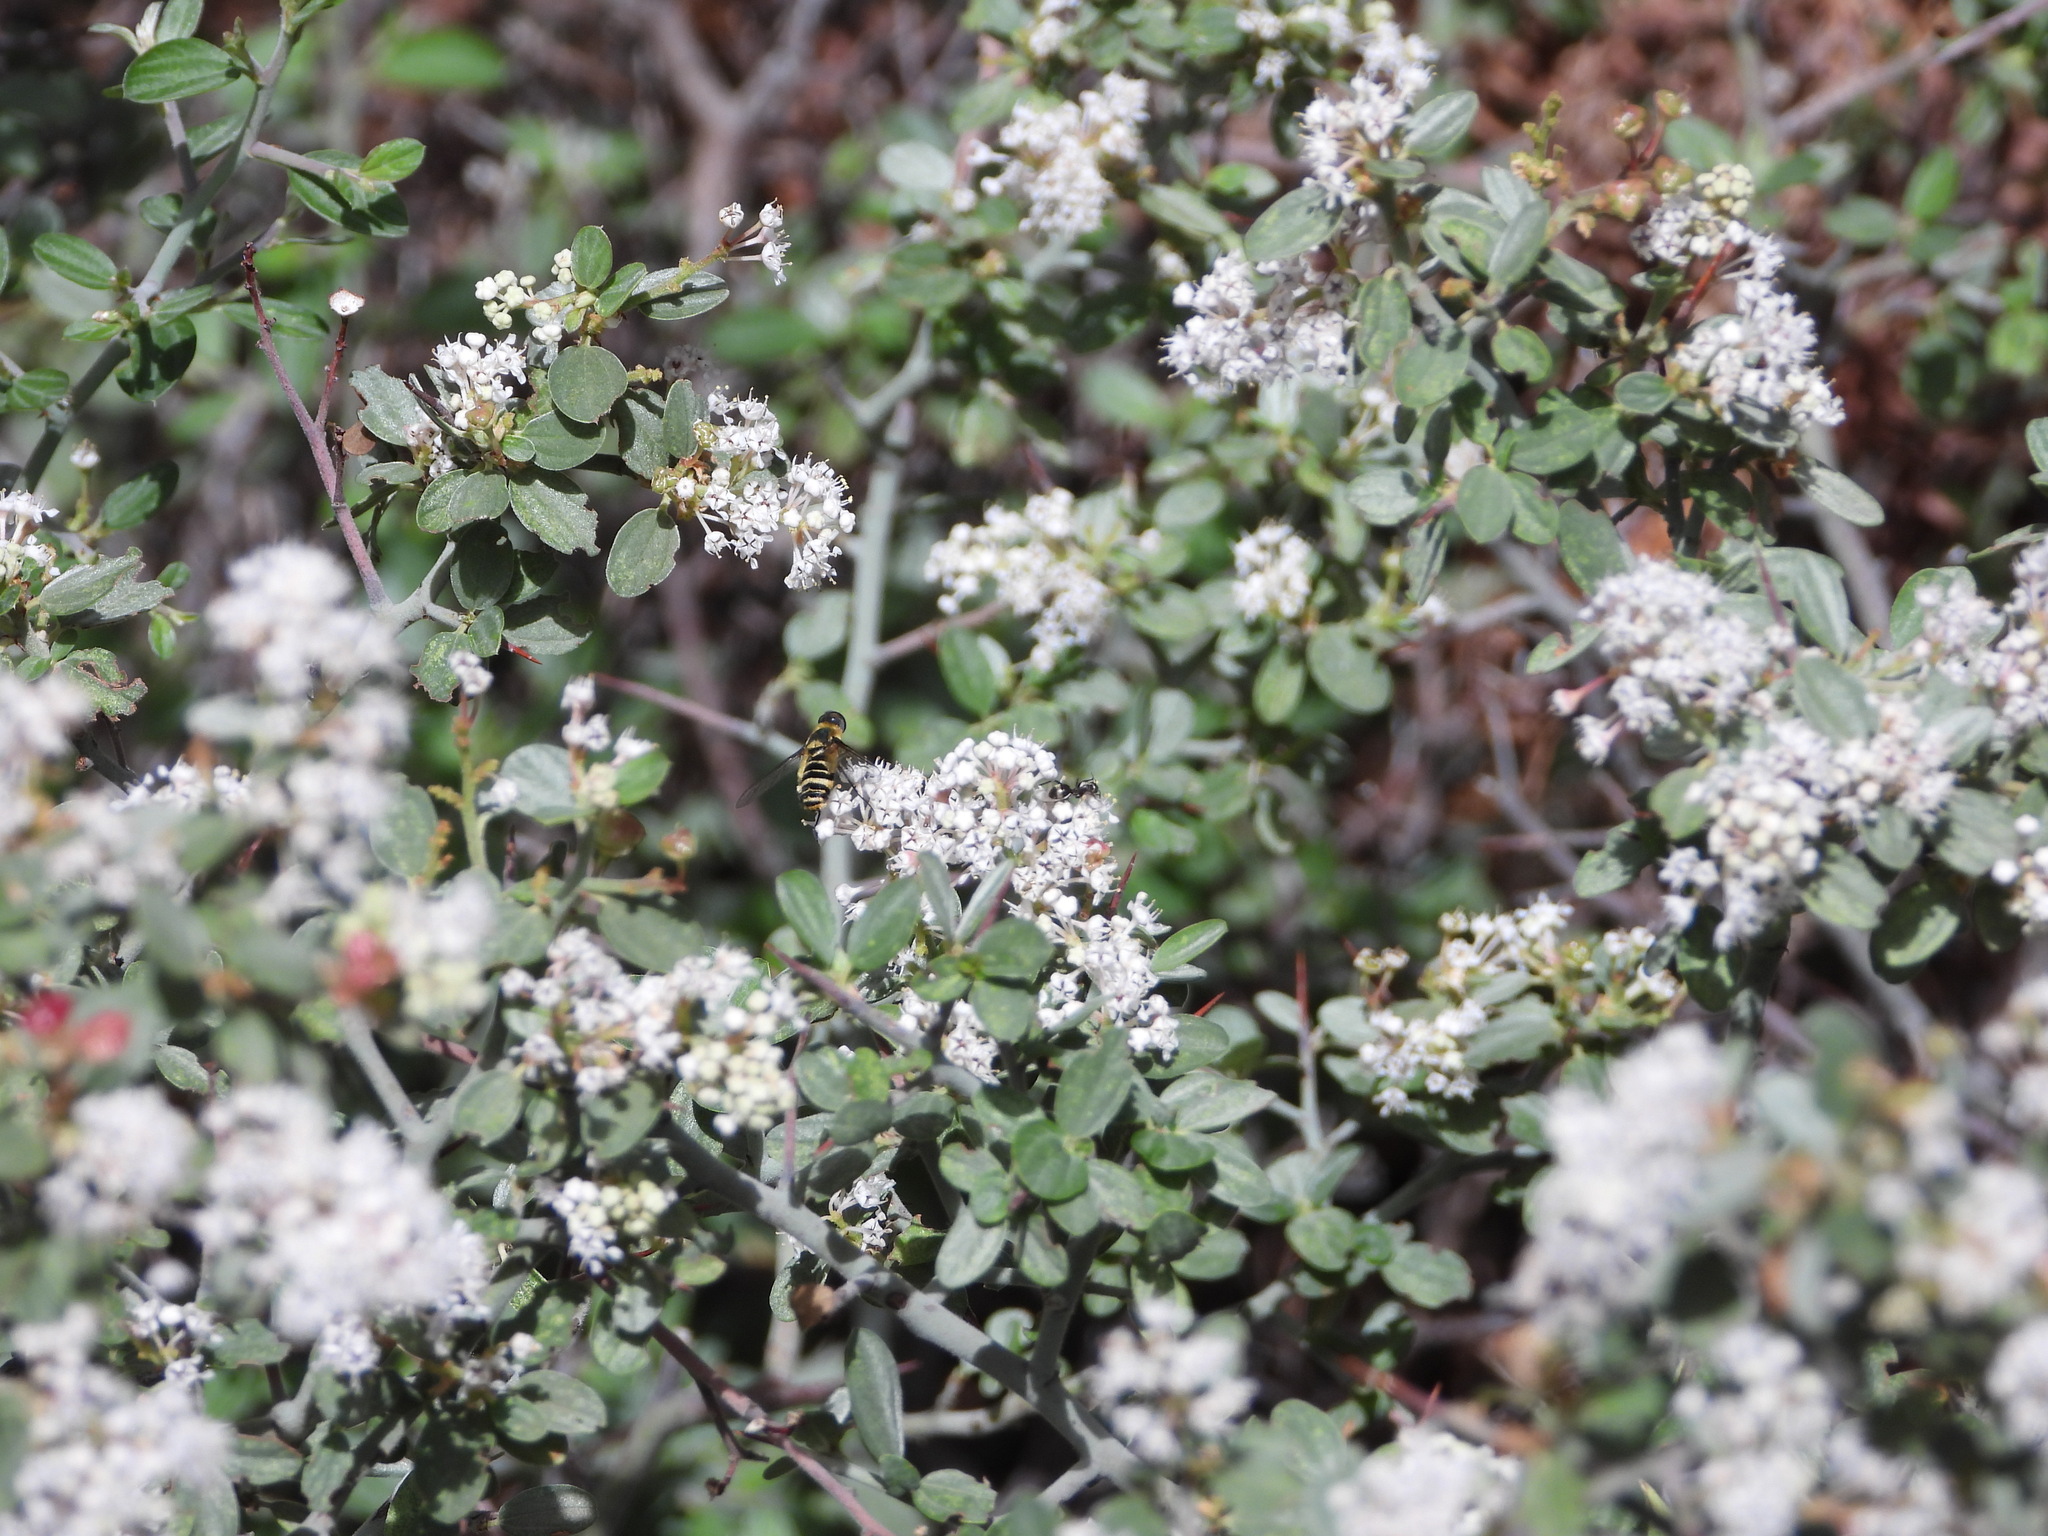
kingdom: Plantae
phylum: Tracheophyta
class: Magnoliopsida
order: Rosales
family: Rhamnaceae
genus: Ceanothus
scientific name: Ceanothus fendleri
